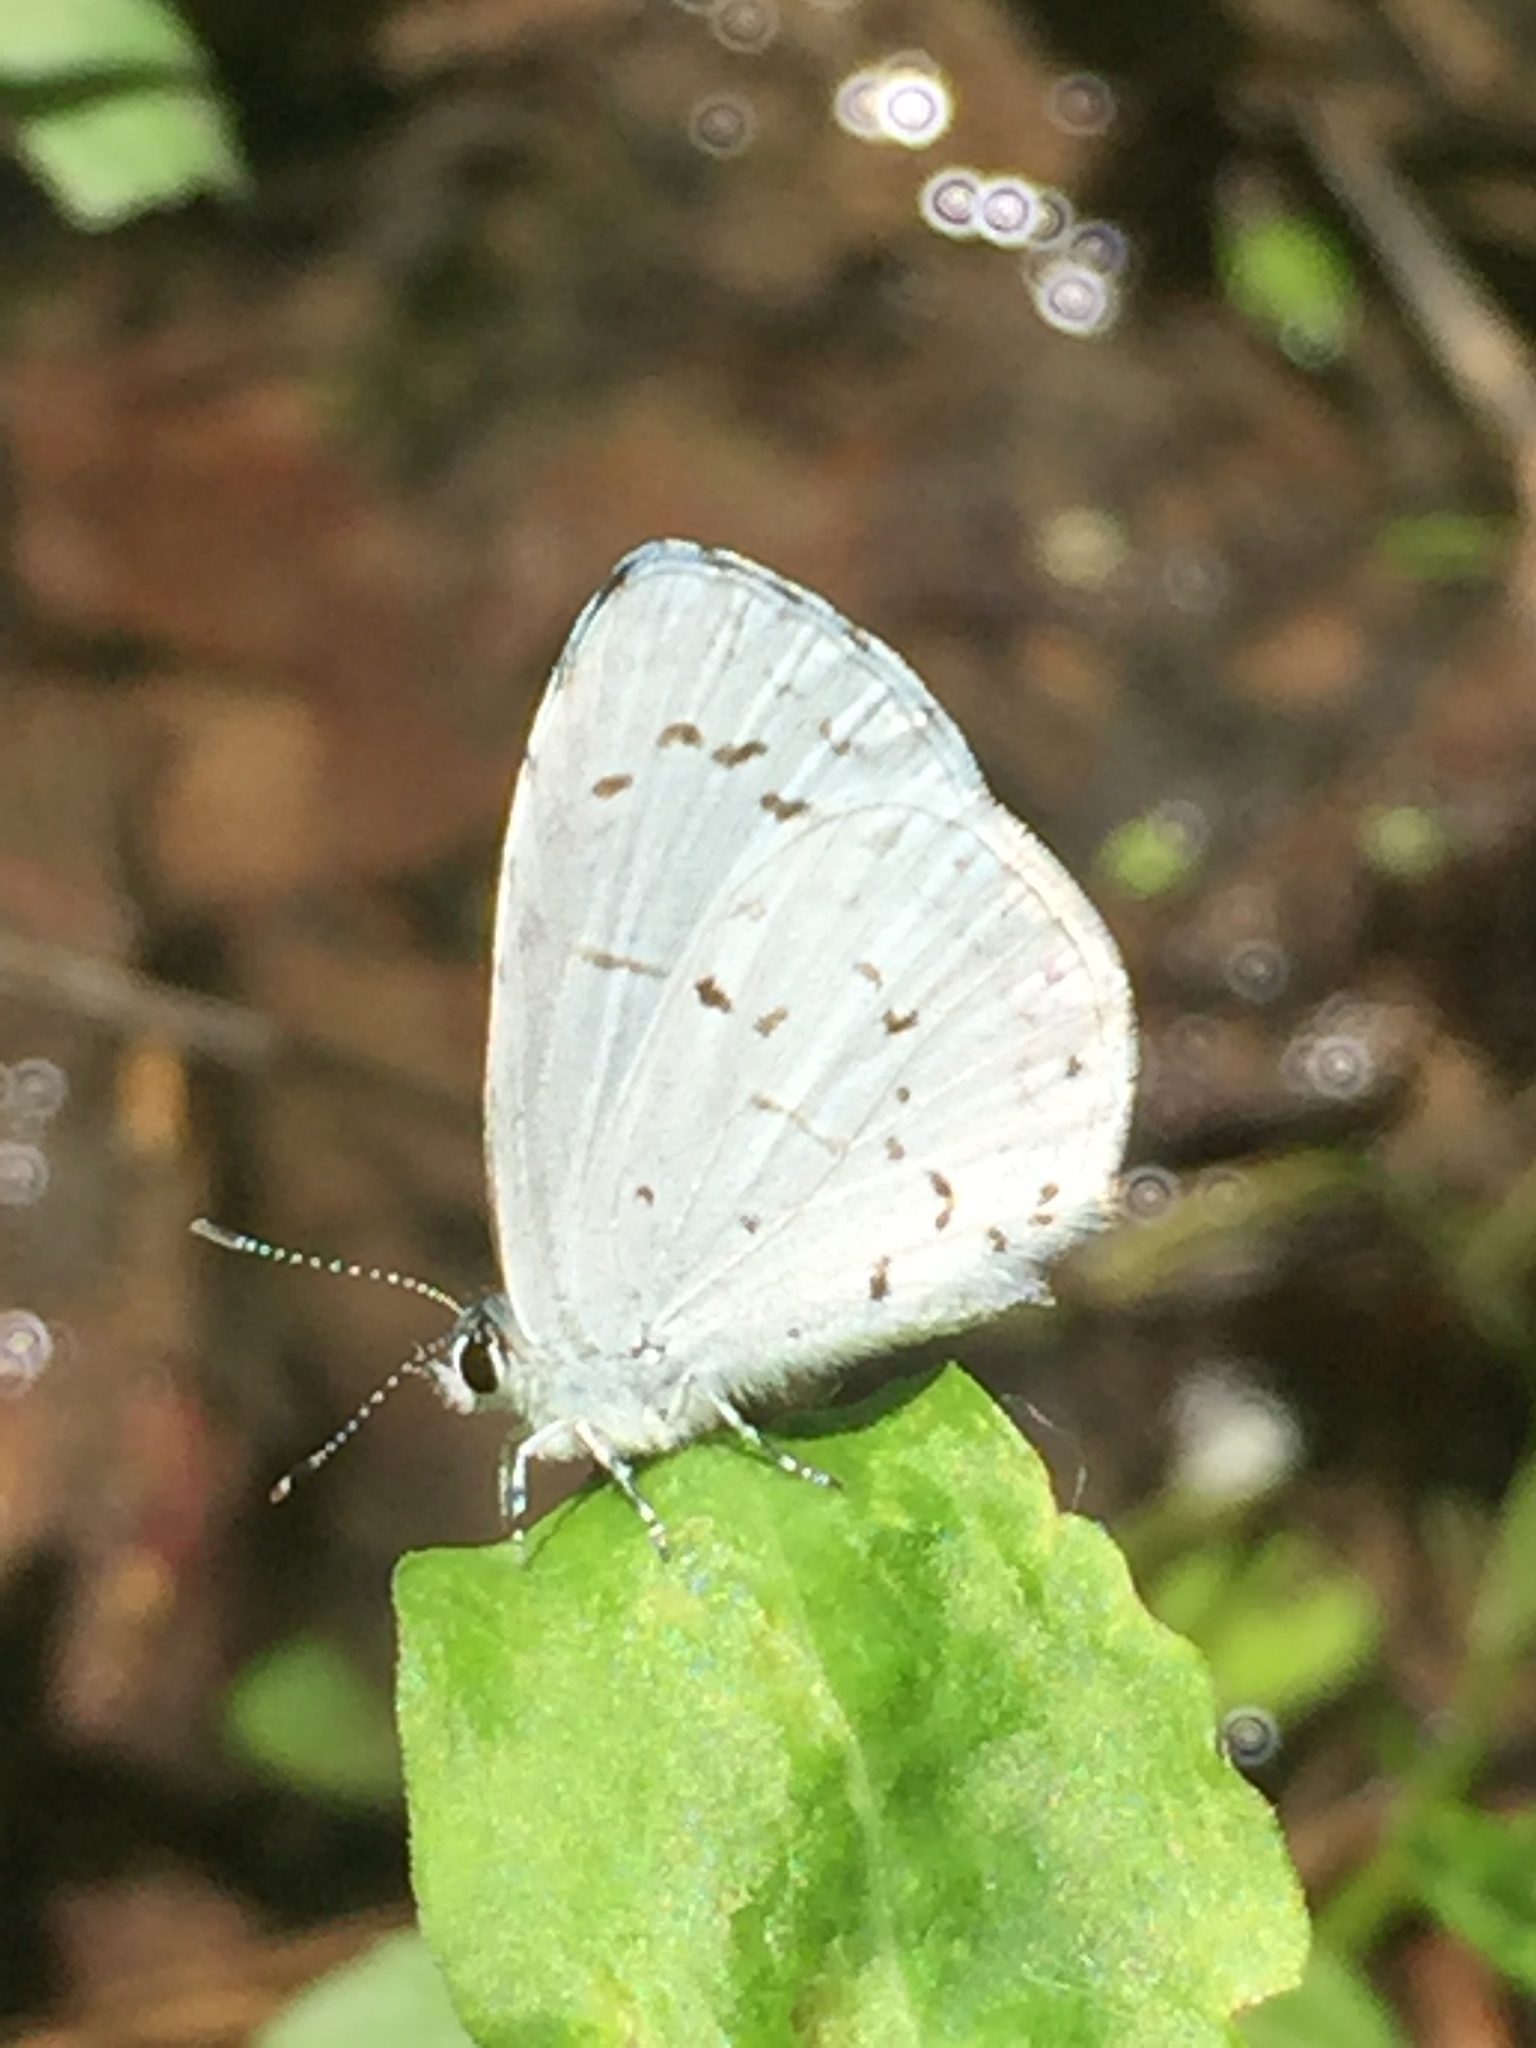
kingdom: Animalia
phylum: Arthropoda
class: Insecta
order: Lepidoptera
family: Lycaenidae
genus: Cyaniris
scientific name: Cyaniris neglecta
